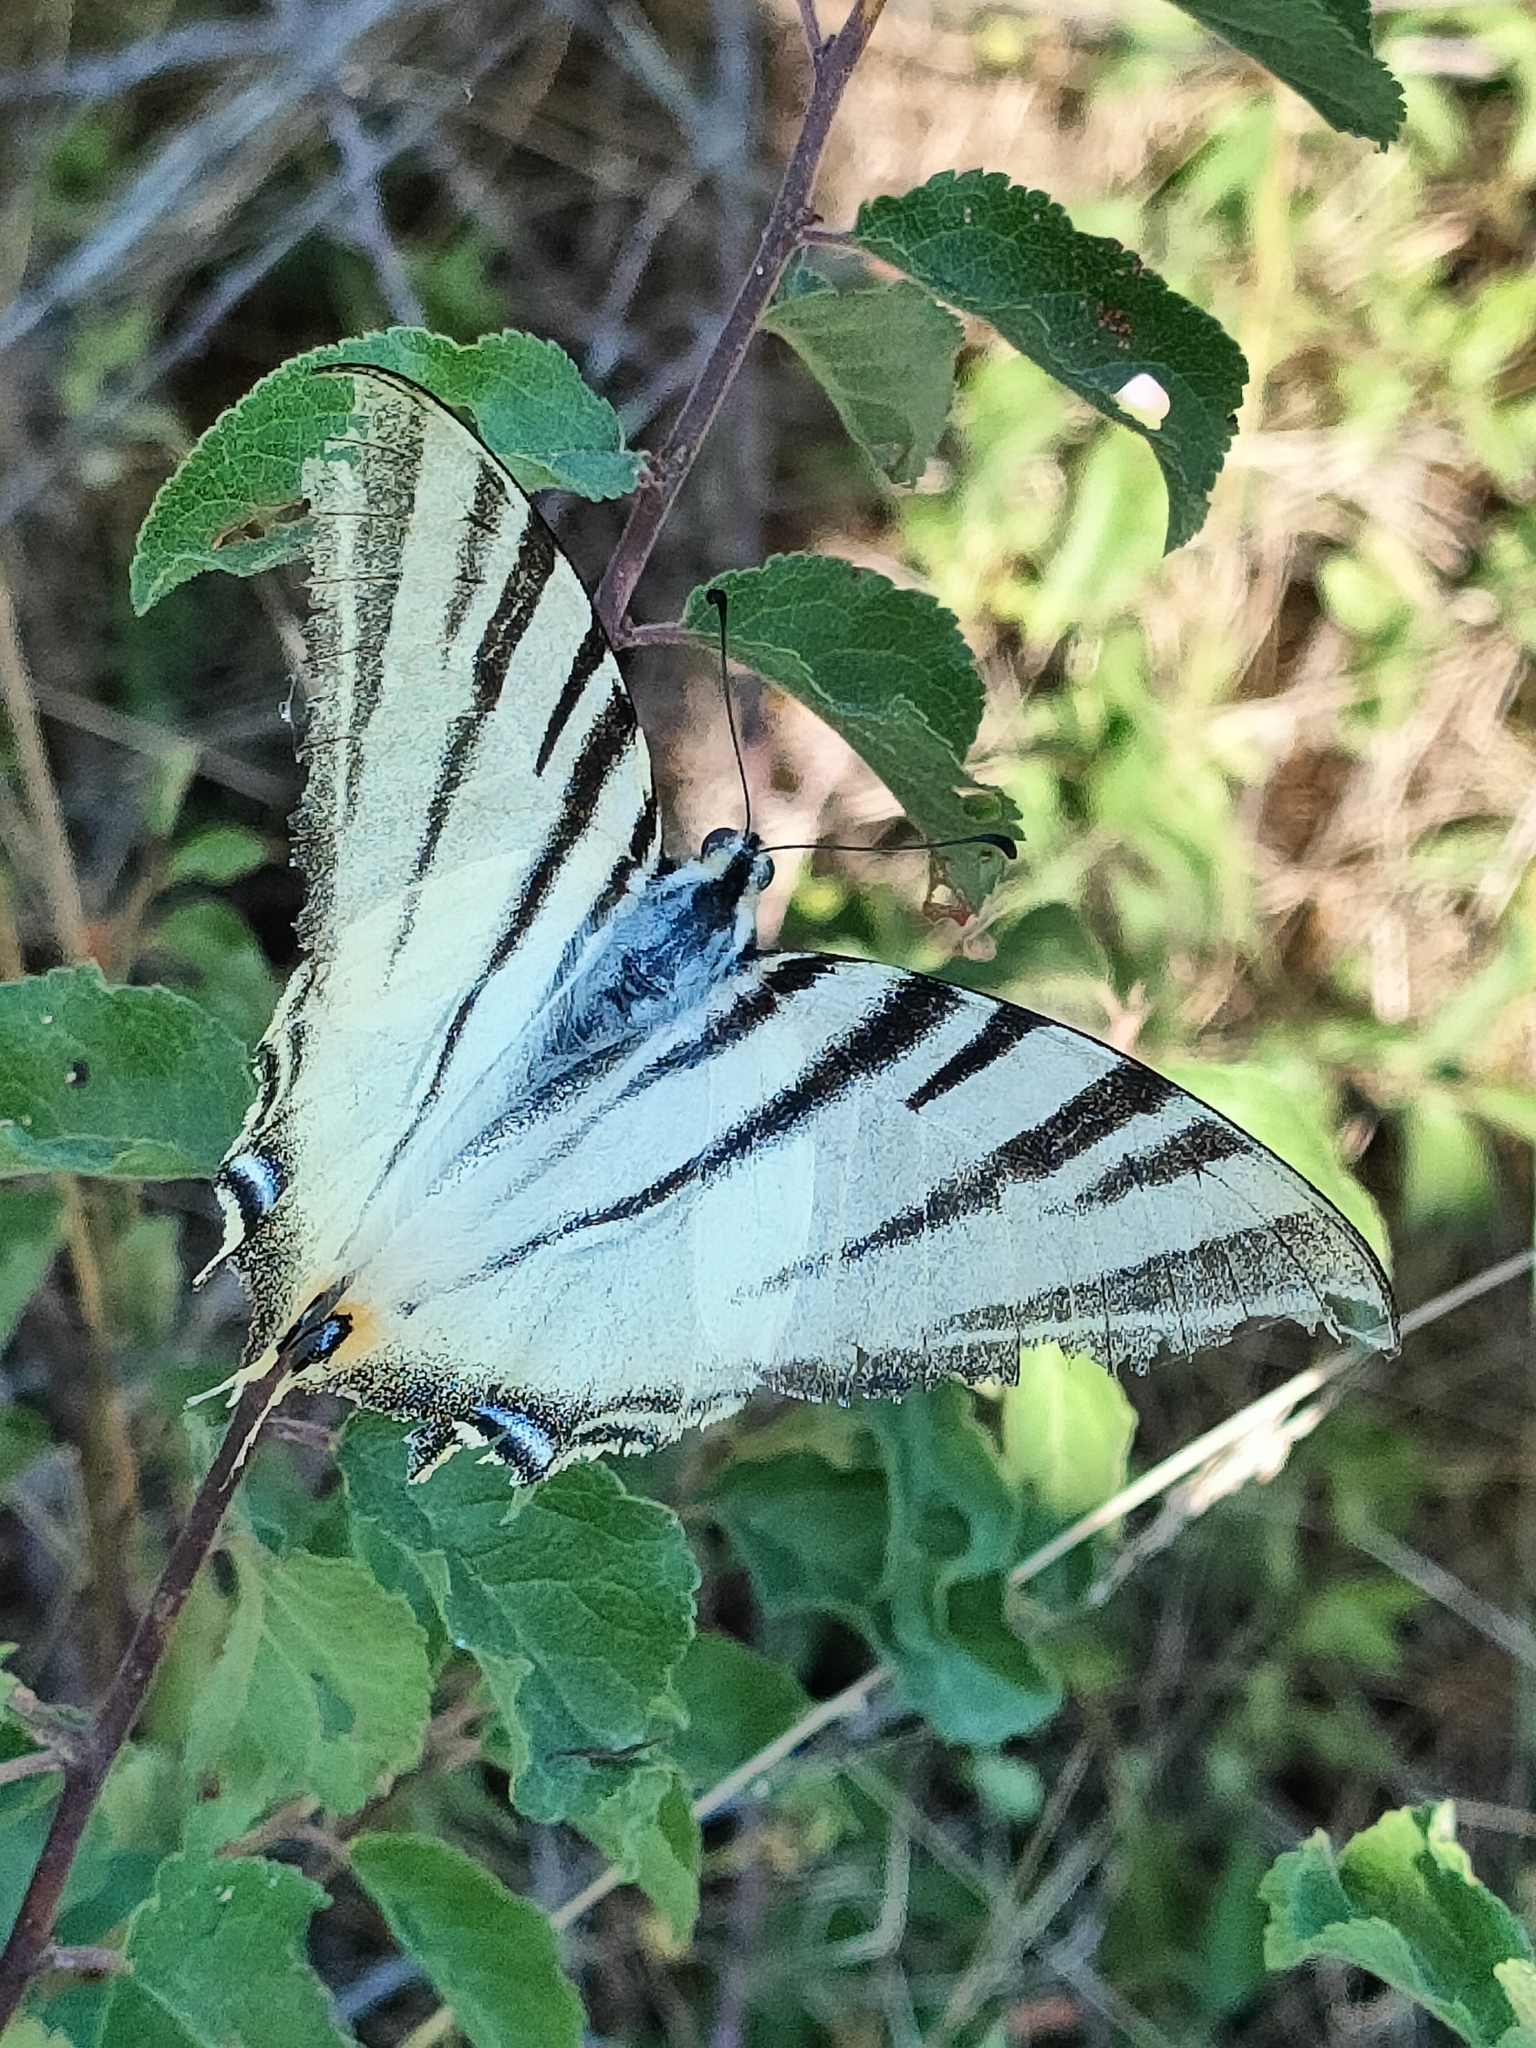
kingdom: Animalia
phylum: Arthropoda
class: Insecta
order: Lepidoptera
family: Papilionidae
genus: Iphiclides
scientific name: Iphiclides podalirius
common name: Scarce swallowtail
